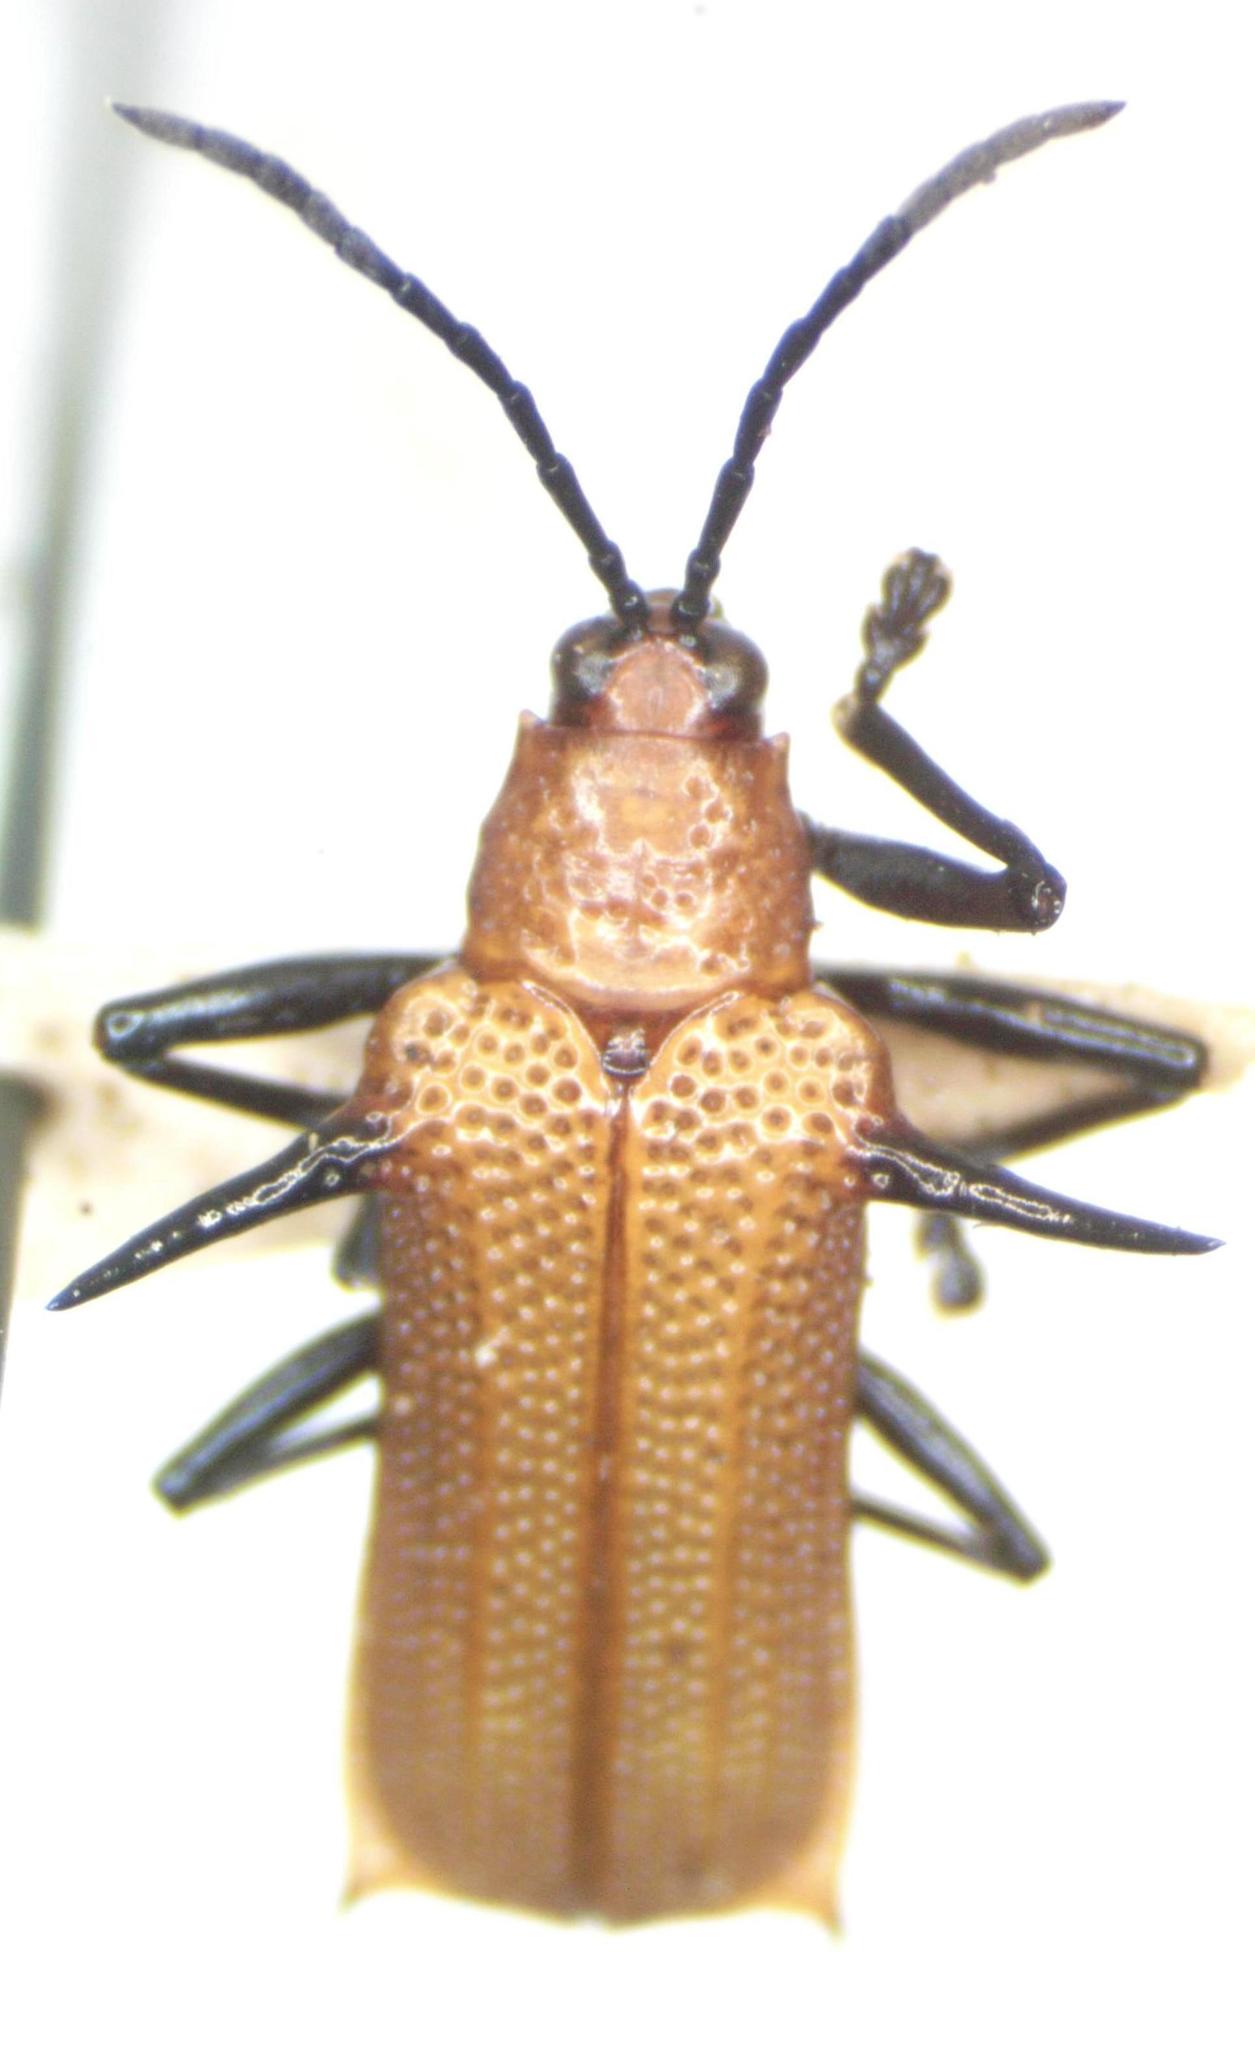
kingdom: Animalia
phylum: Arthropoda
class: Insecta
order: Coleoptera
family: Chrysomelidae
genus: Sceloenopla
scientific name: Sceloenopla ferox
